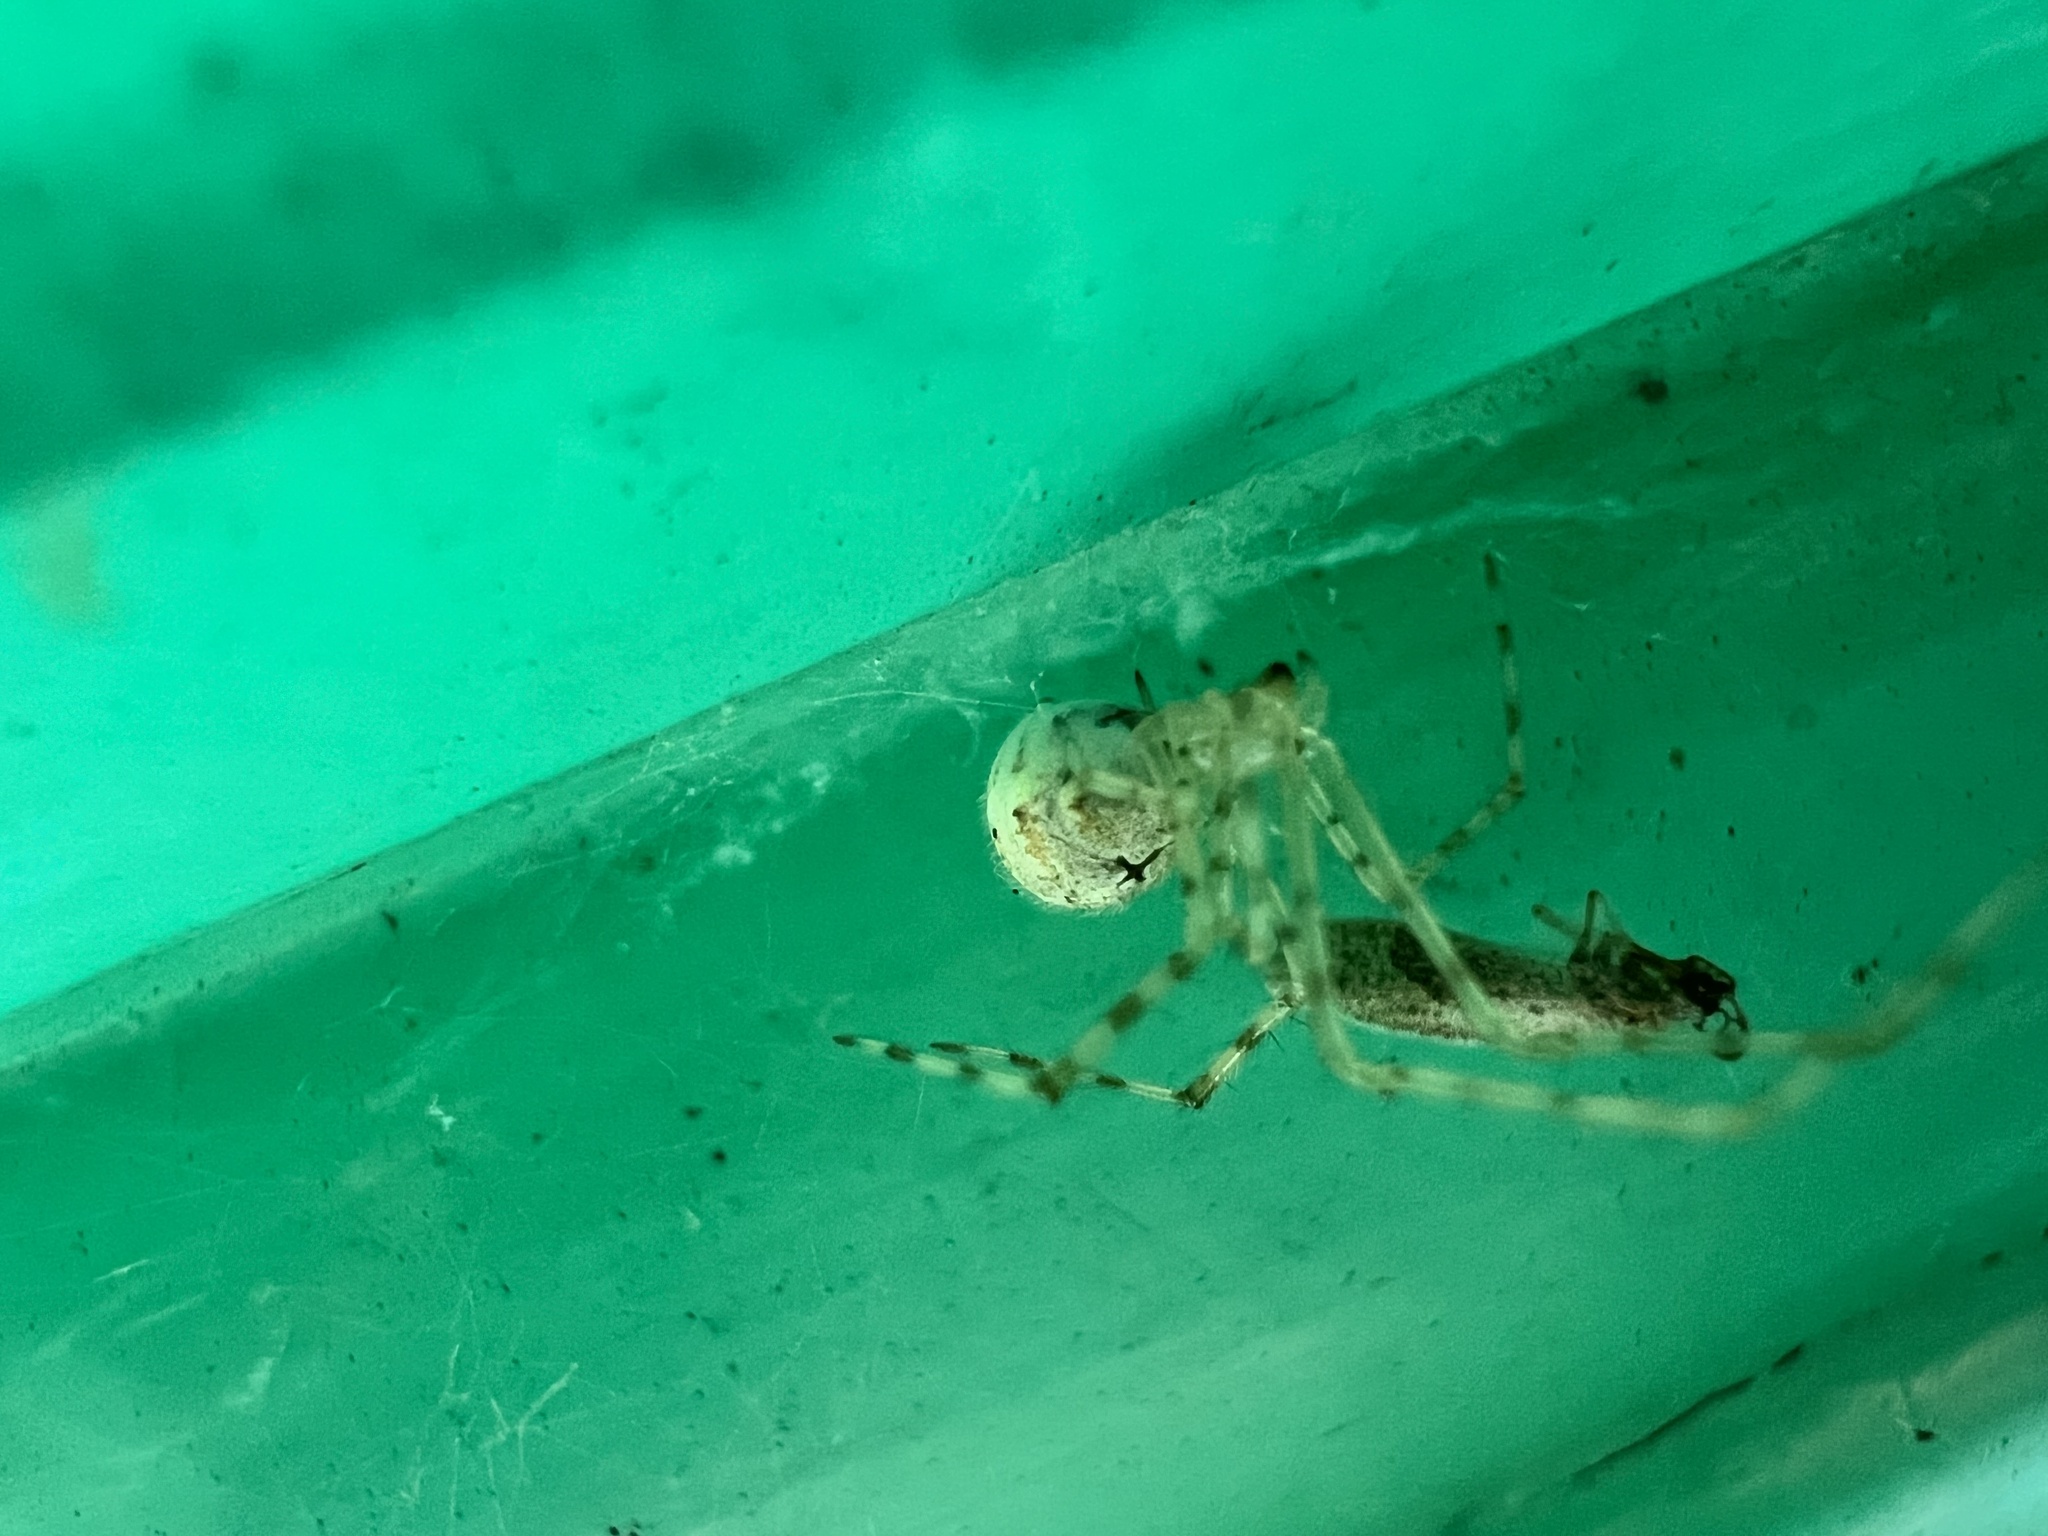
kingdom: Animalia
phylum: Arthropoda
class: Arachnida
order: Araneae
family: Theridiidae
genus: Cryptachaea
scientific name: Cryptachaea gigantipes
